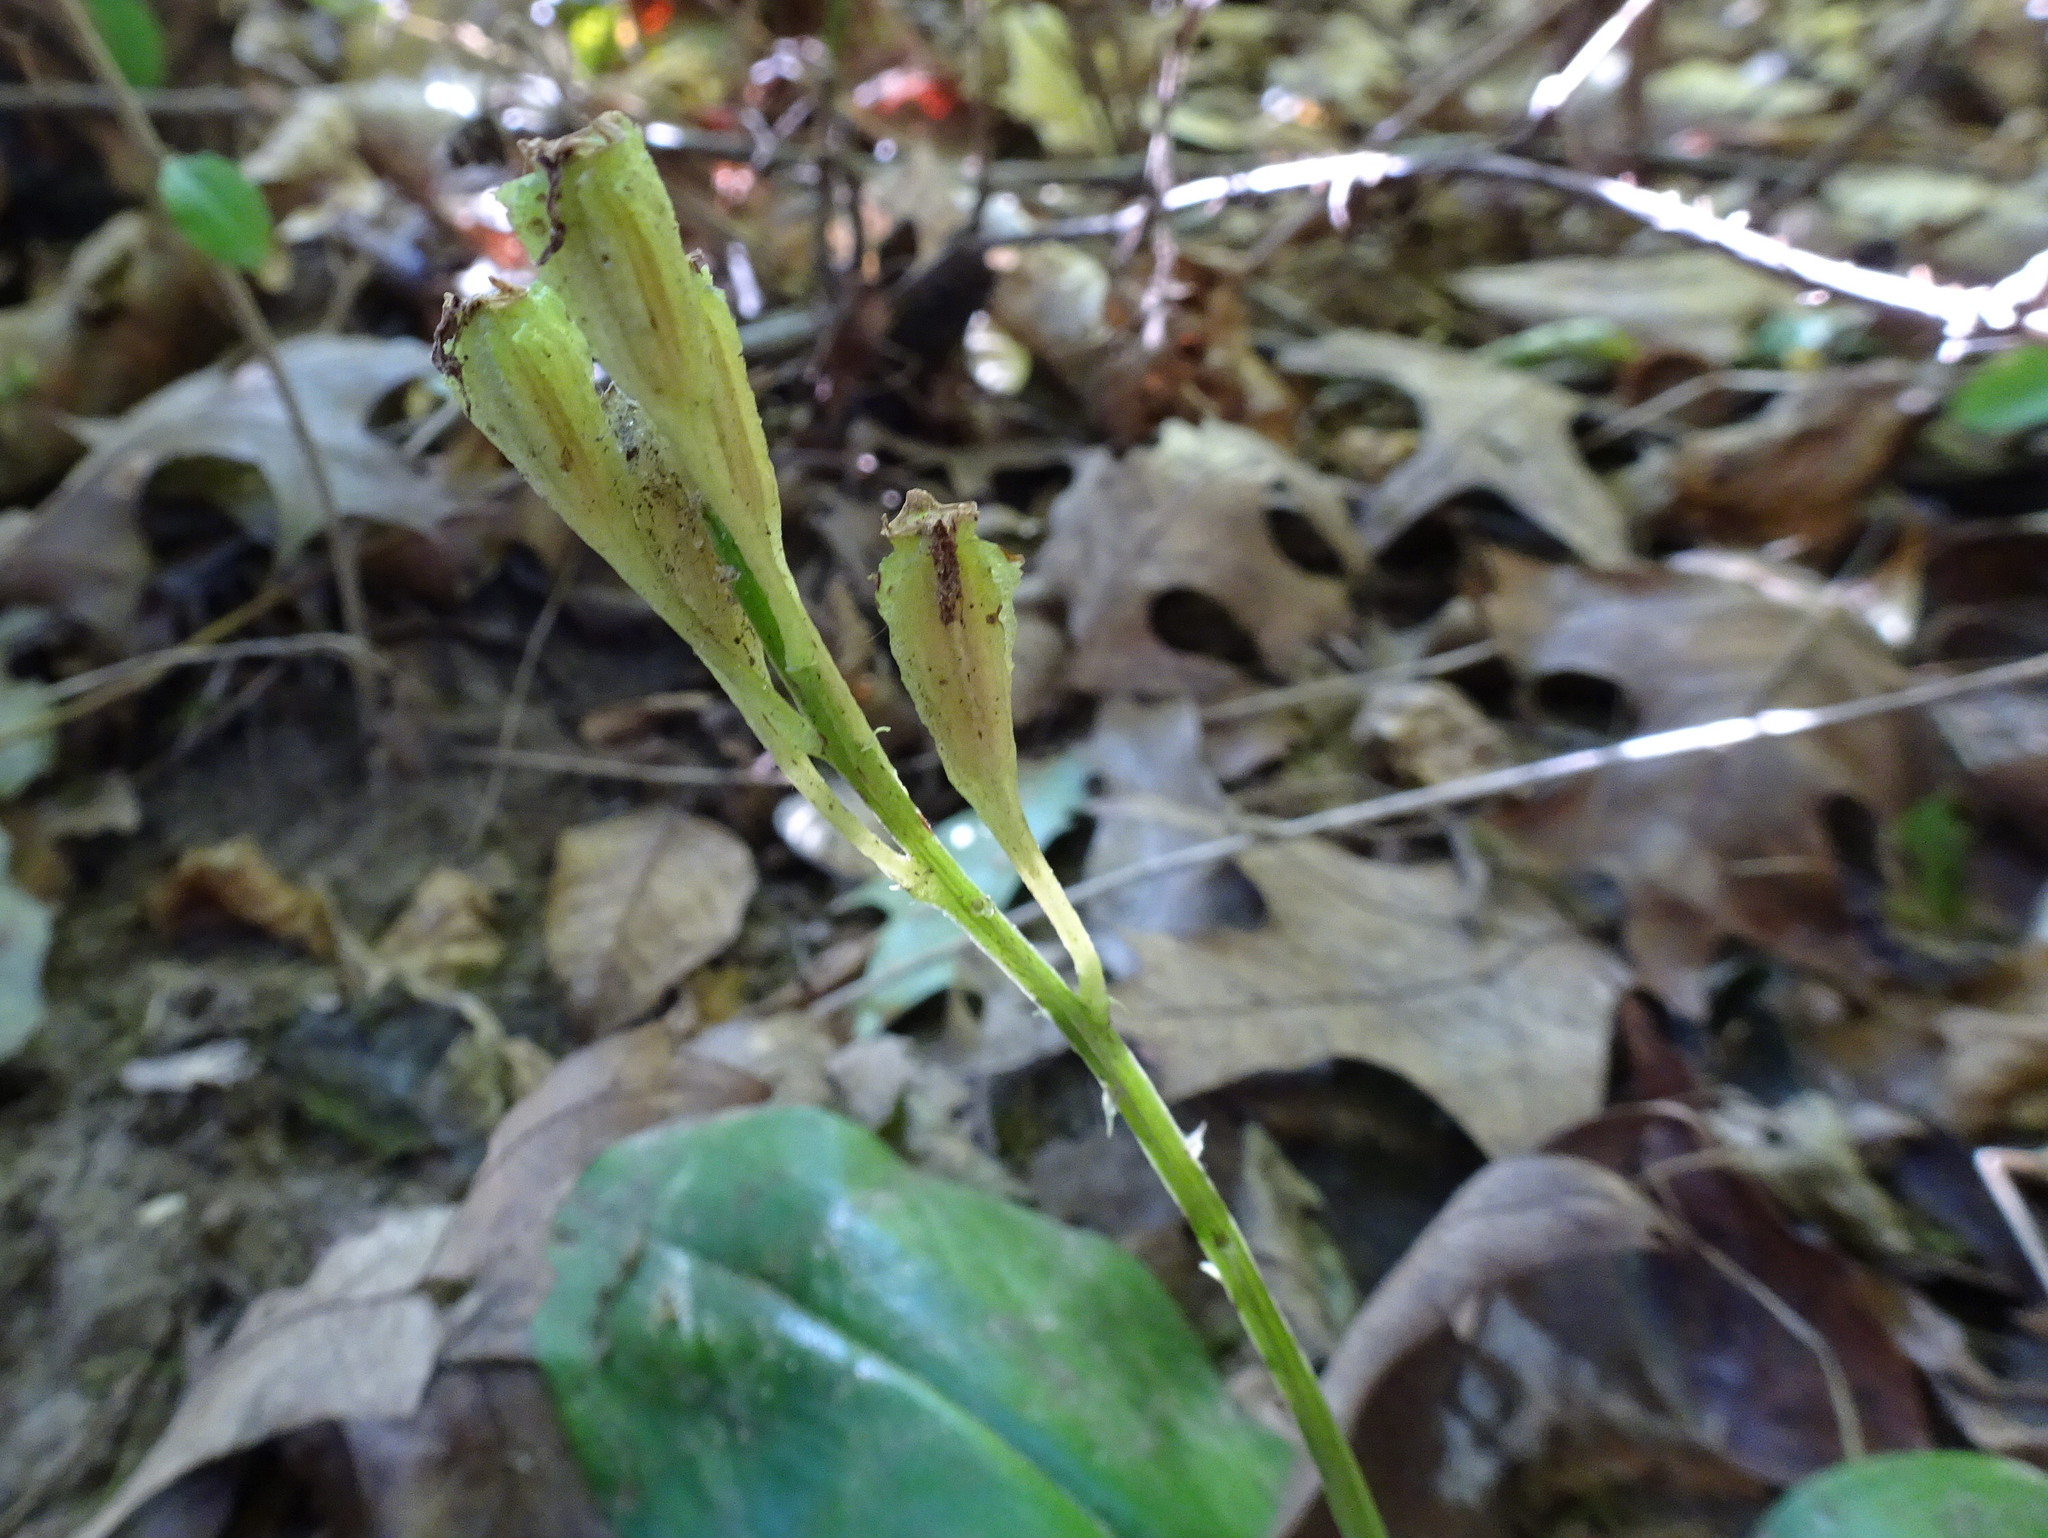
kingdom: Plantae
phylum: Tracheophyta
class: Liliopsida
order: Asparagales
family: Orchidaceae
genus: Liparis
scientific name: Liparis liliifolia
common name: Brown wide-lip orchid
